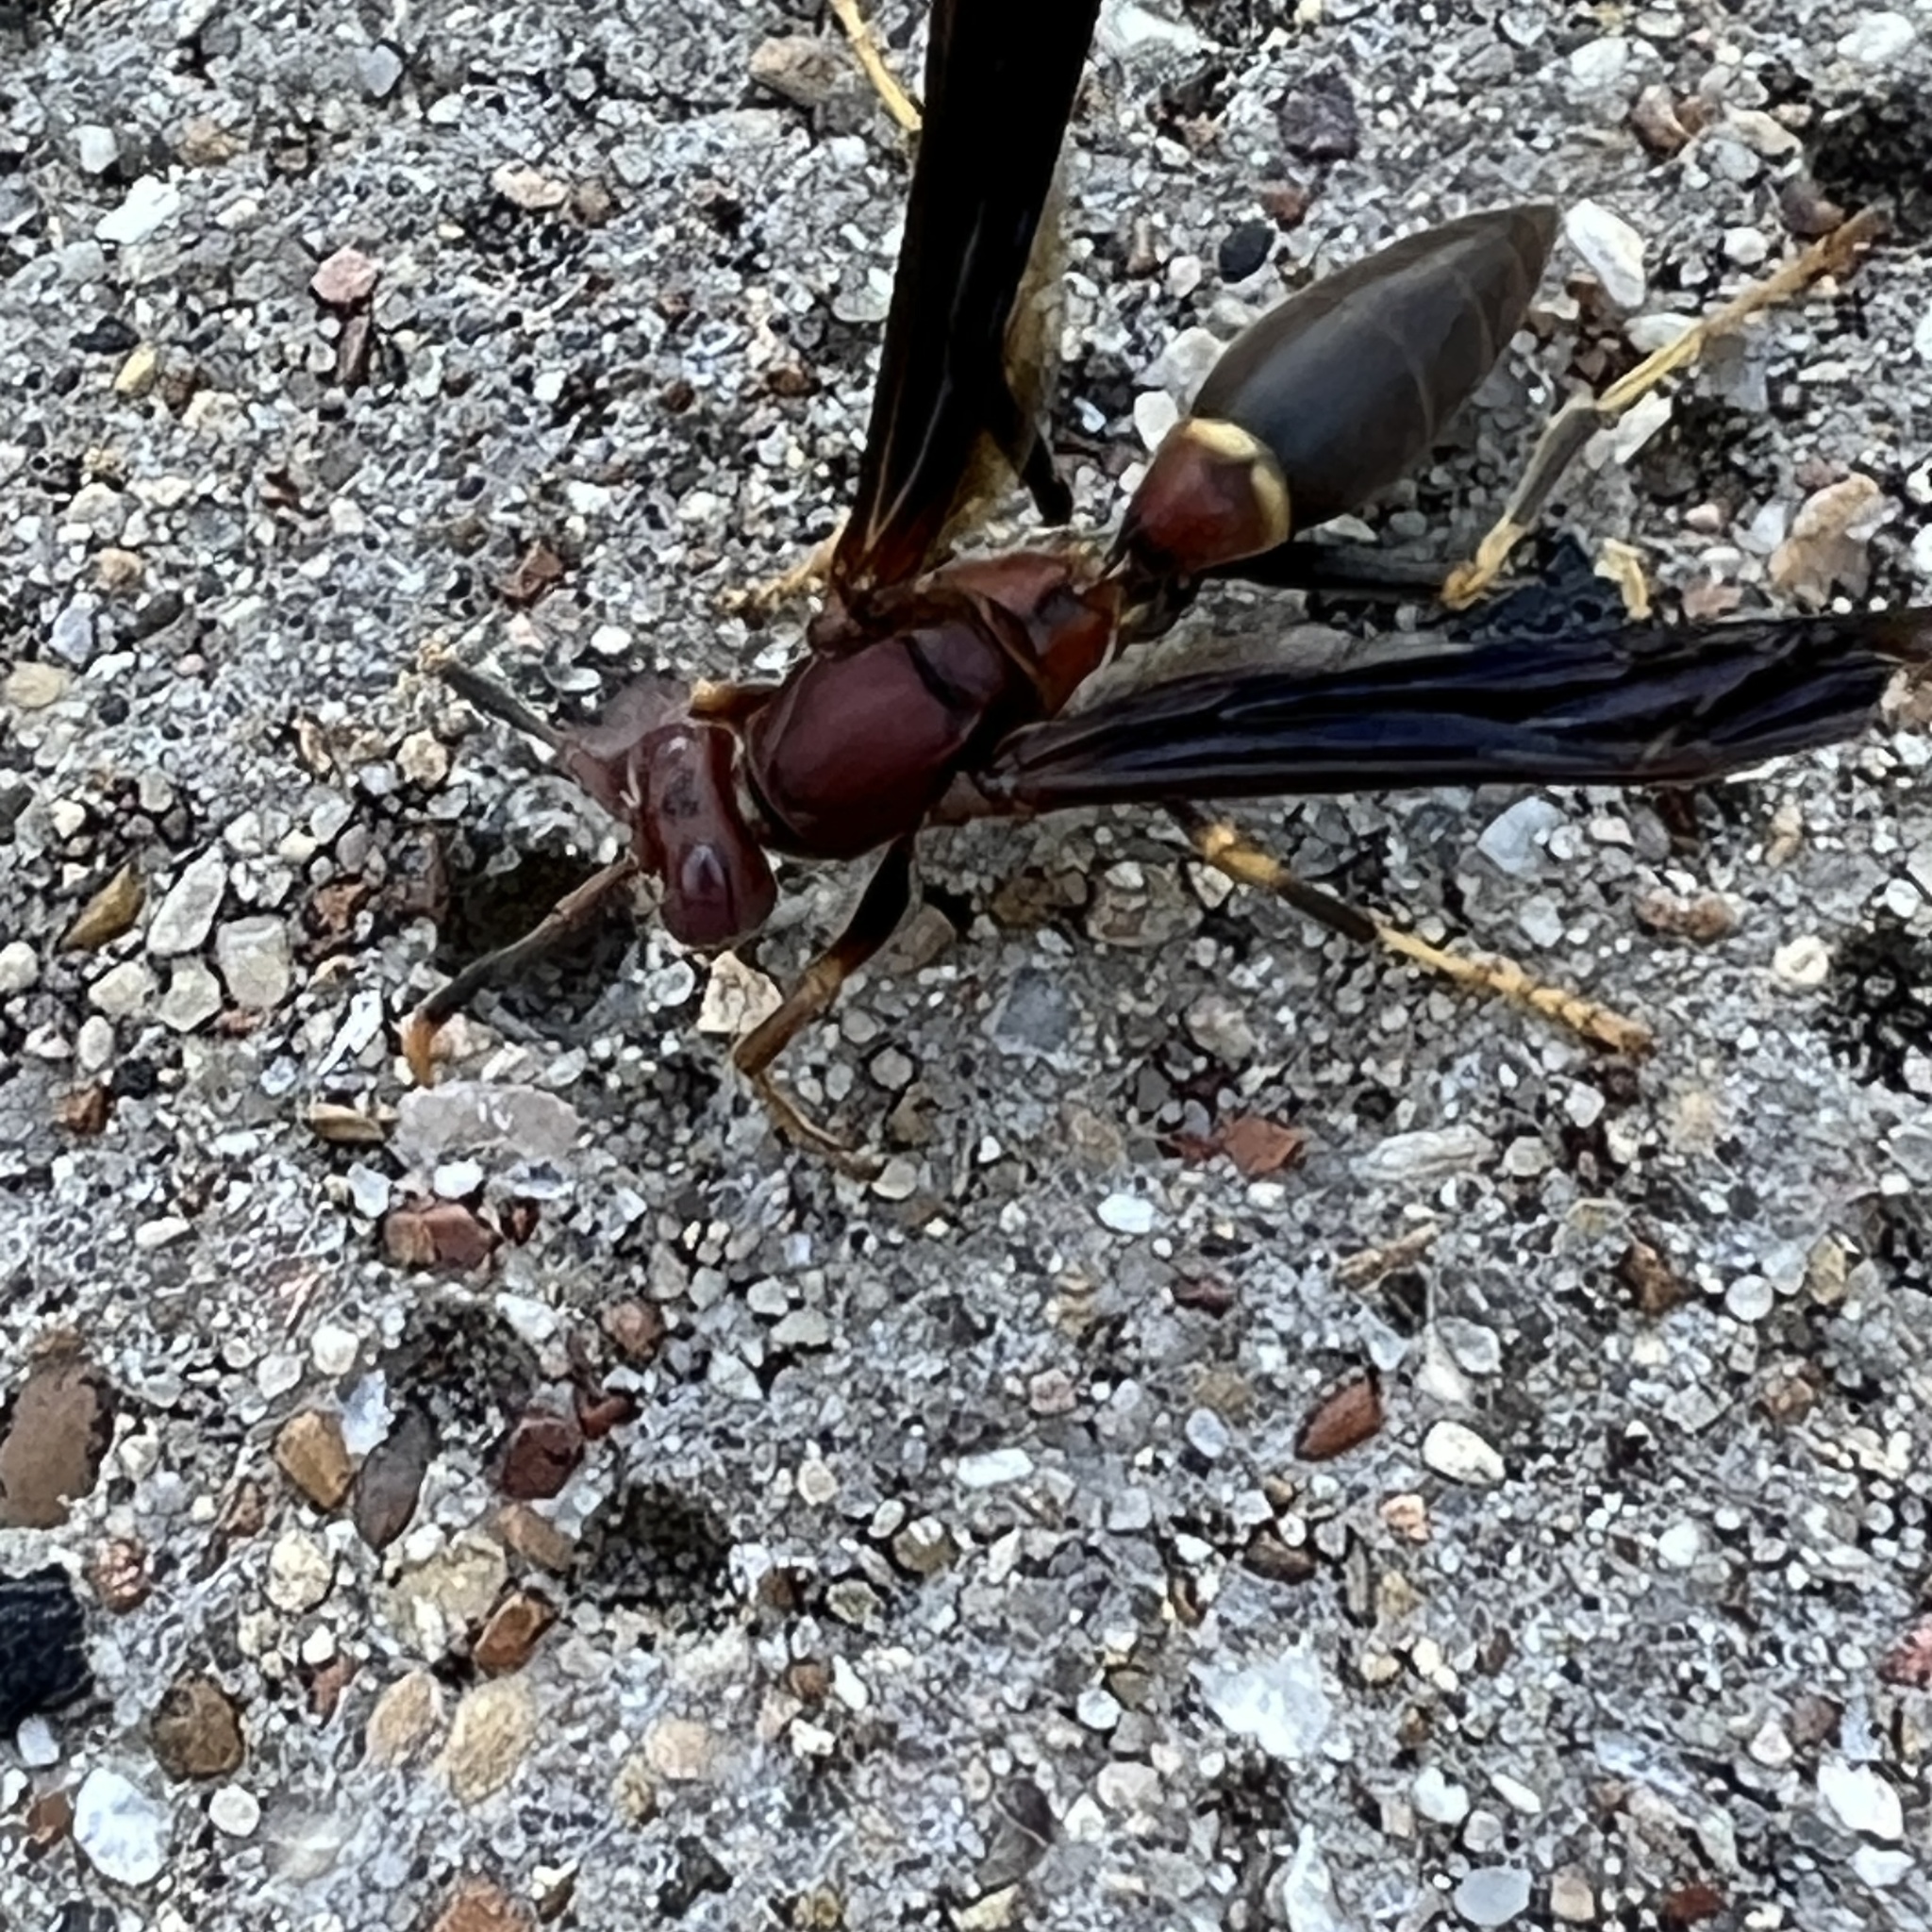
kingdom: Animalia
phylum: Arthropoda
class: Insecta
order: Hymenoptera
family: Eumenidae
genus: Polistes
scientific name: Polistes annularis
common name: Ringed paper wasp
